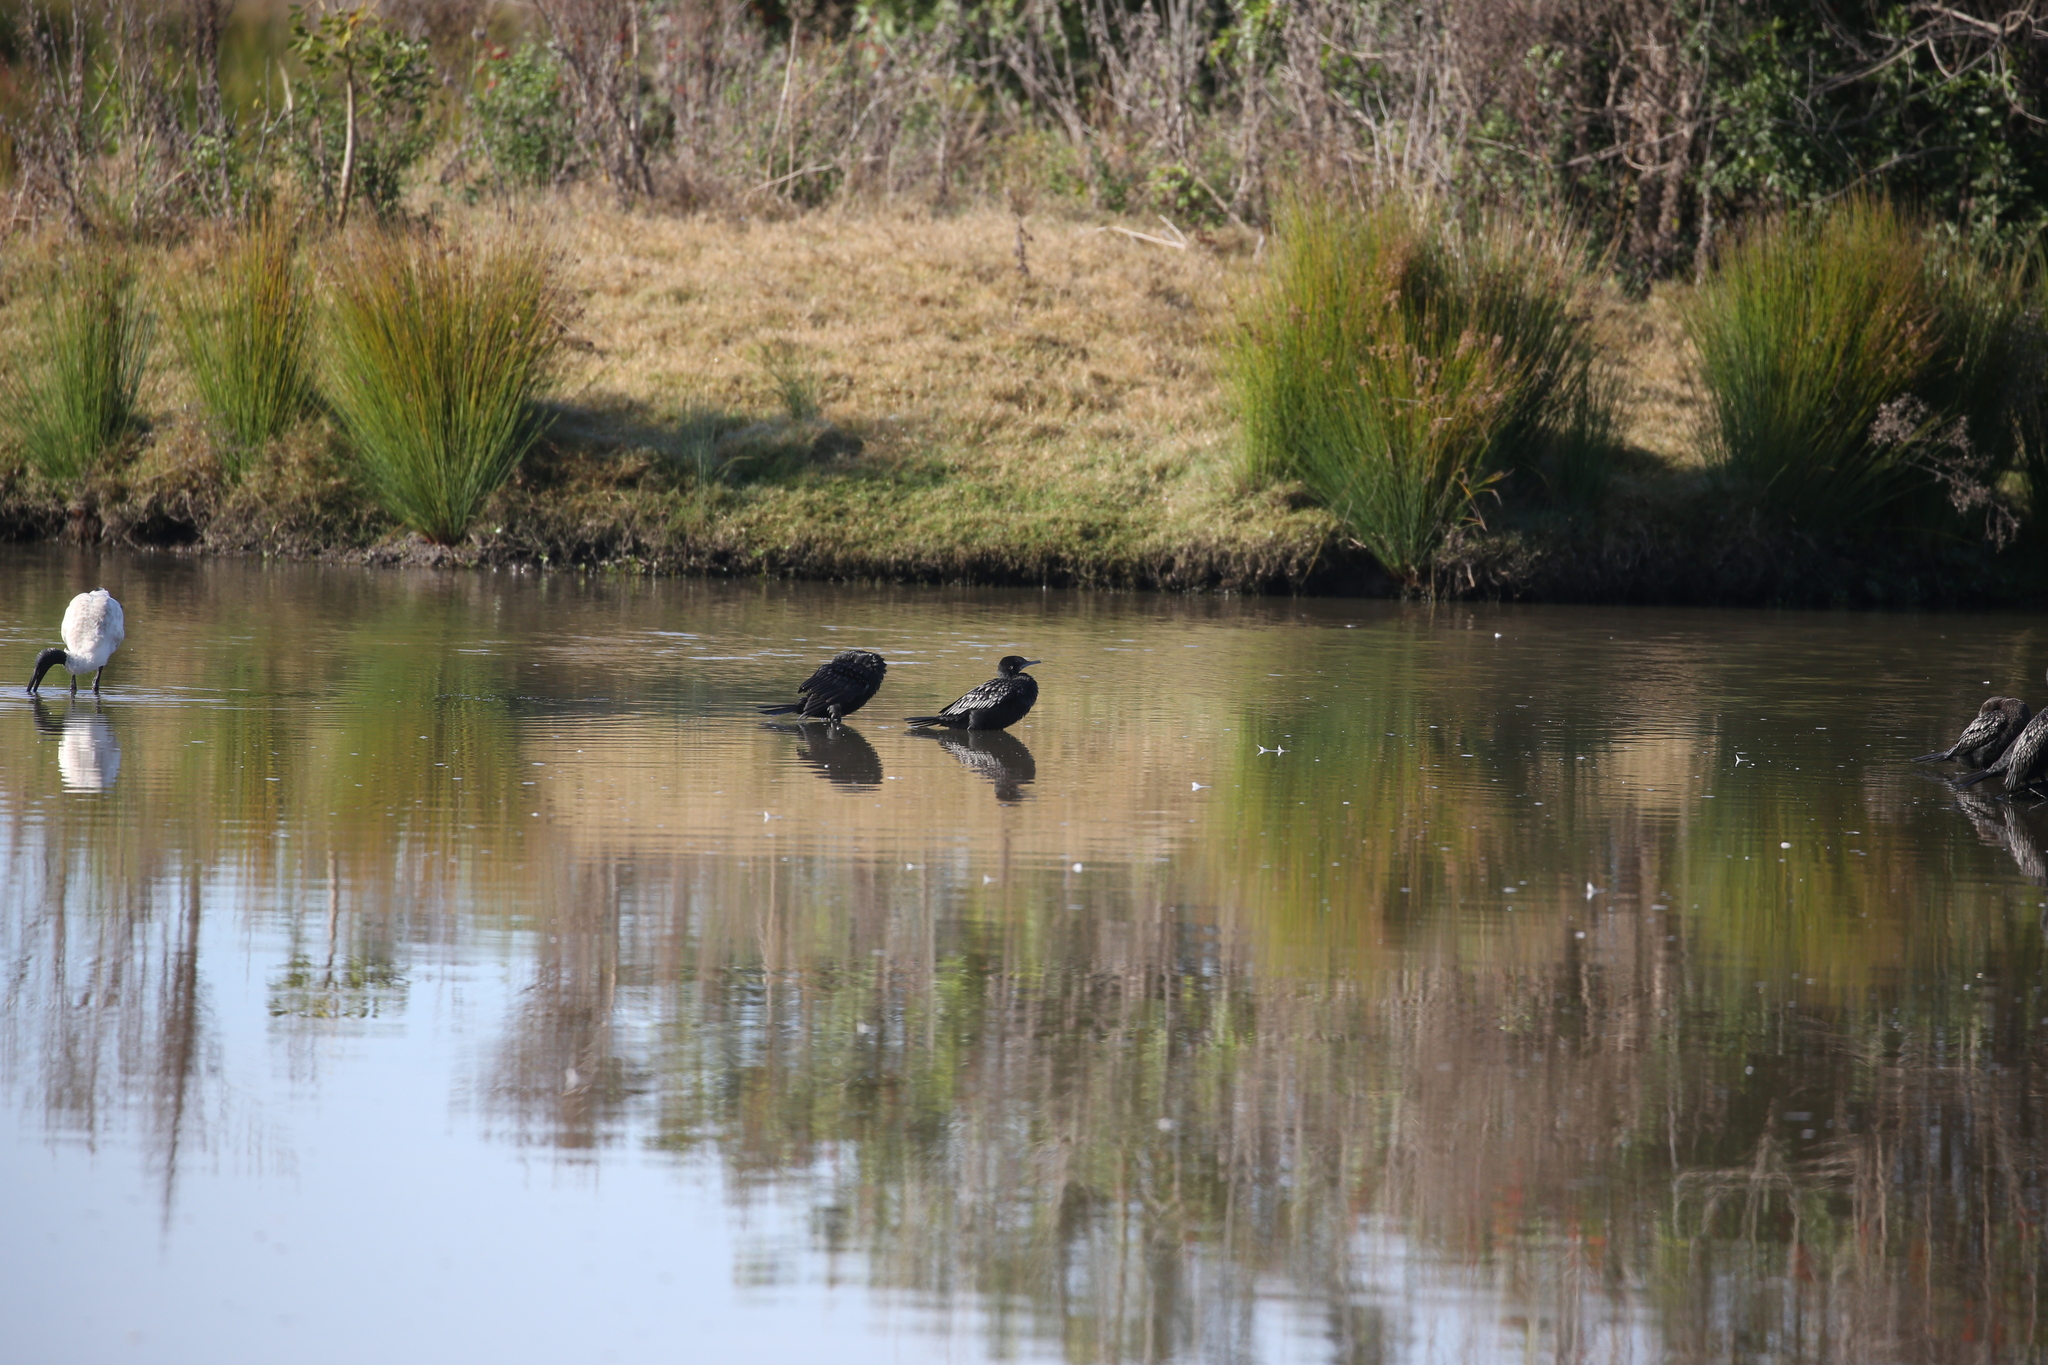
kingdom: Animalia
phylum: Chordata
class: Aves
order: Suliformes
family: Phalacrocoracidae
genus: Phalacrocorax
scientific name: Phalacrocorax sulcirostris
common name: Little black cormorant
